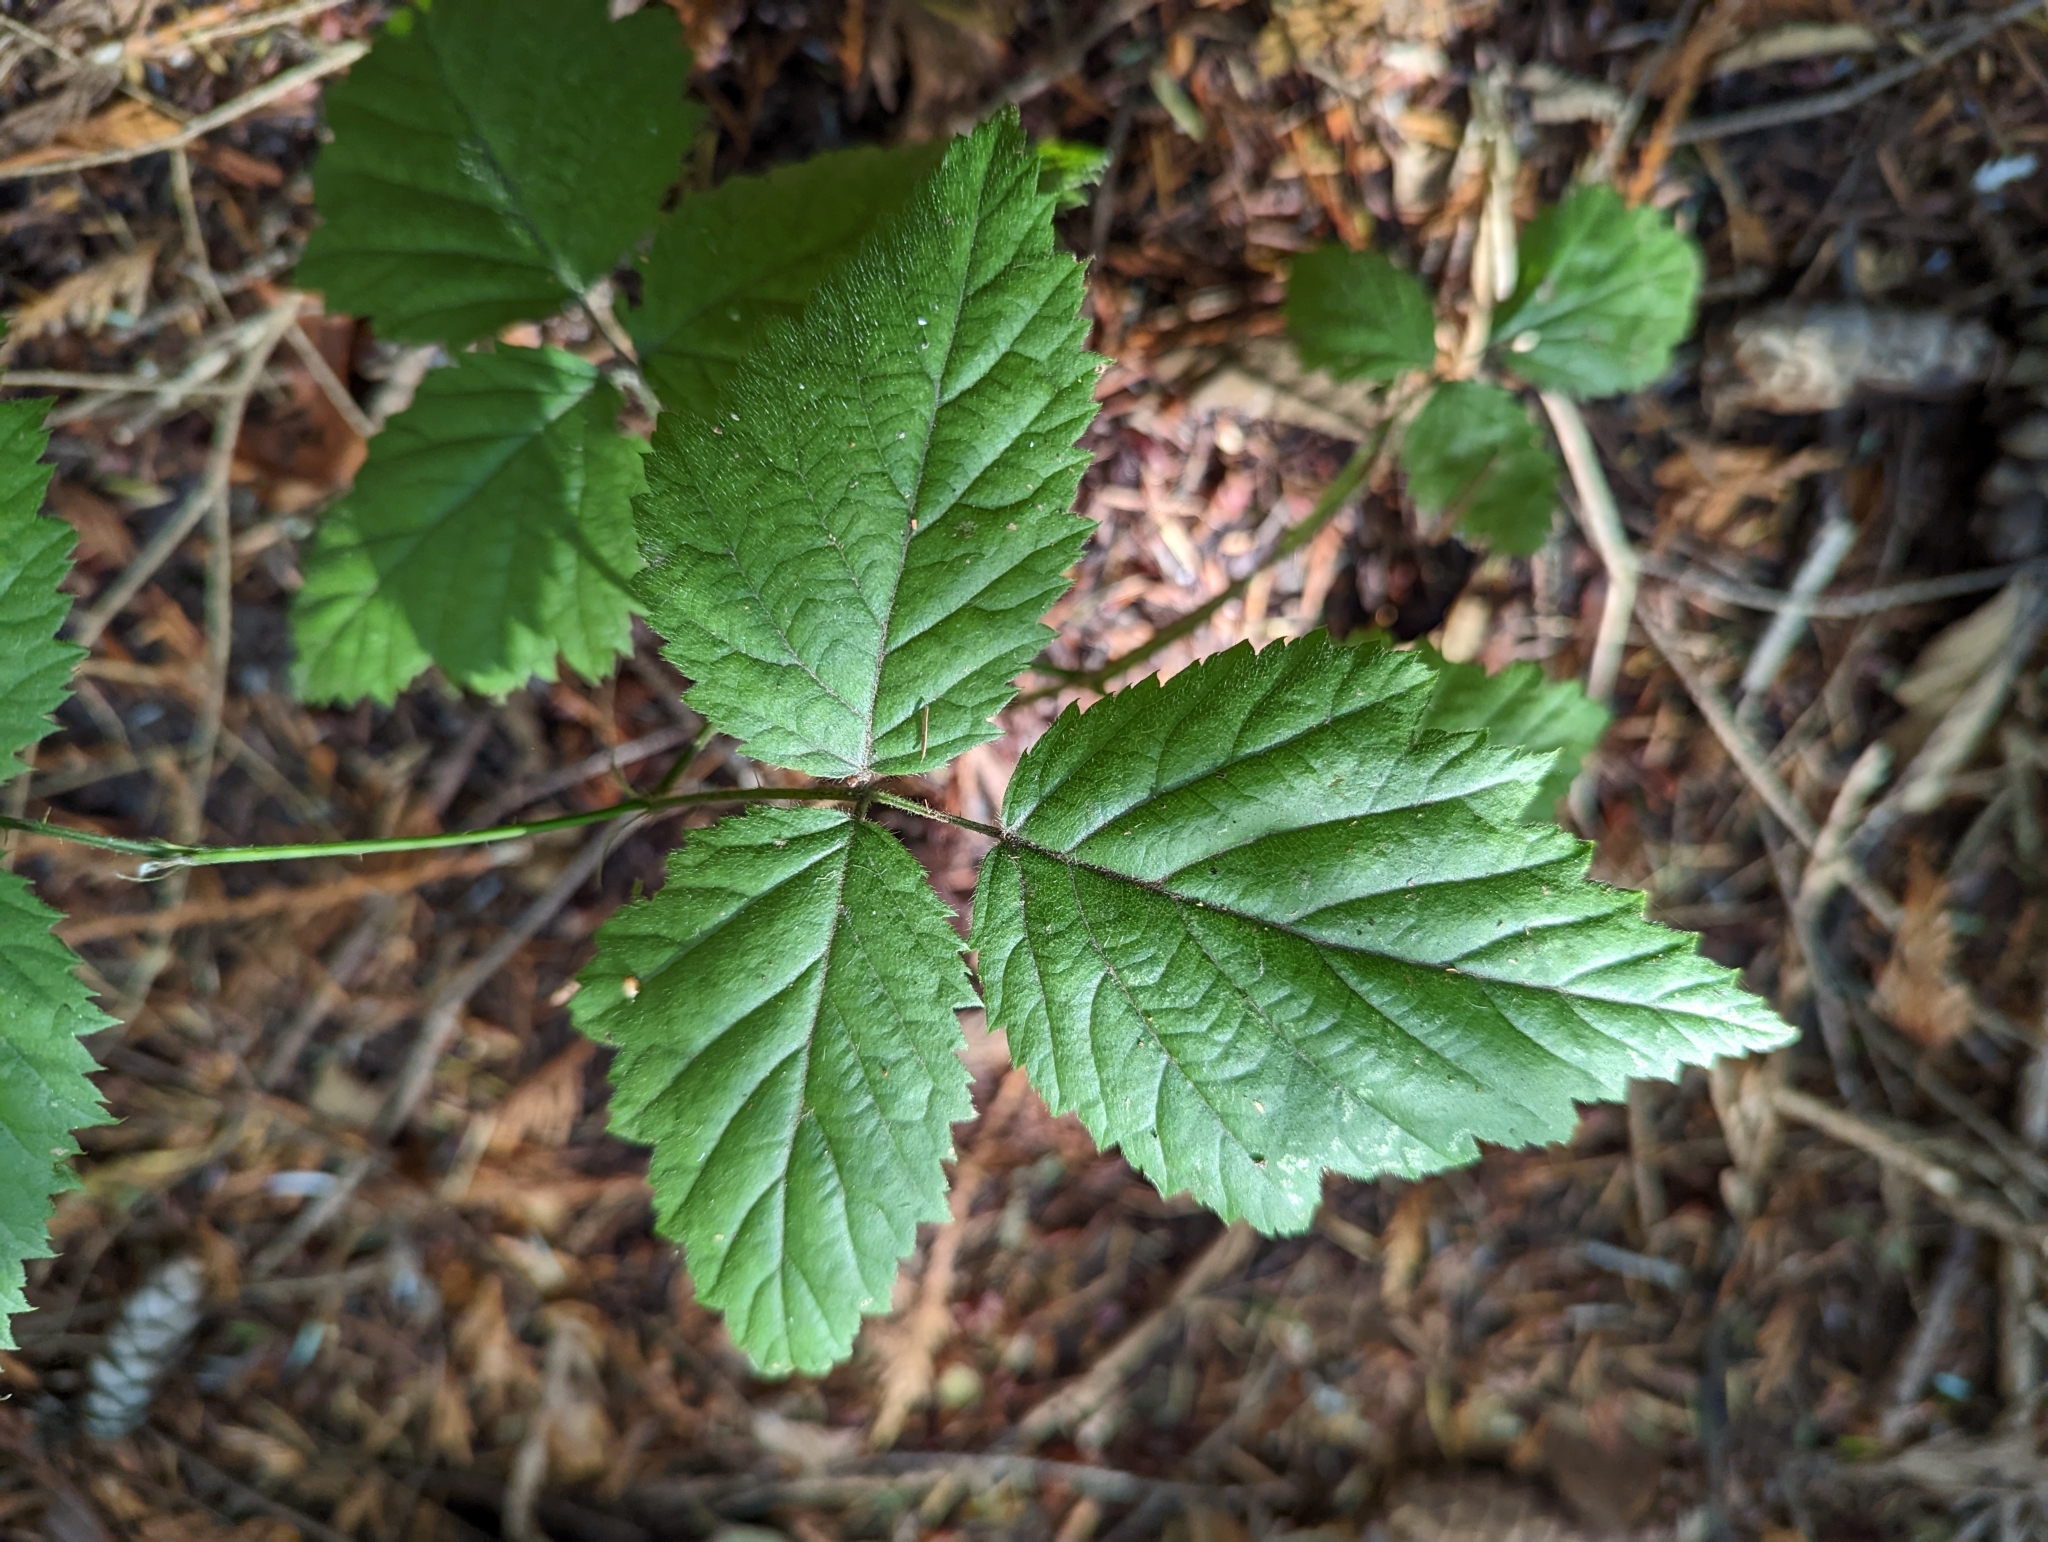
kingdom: Plantae
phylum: Tracheophyta
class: Magnoliopsida
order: Rosales
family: Rosaceae
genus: Rubus
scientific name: Rubus ursinus
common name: Pacific blackberry
